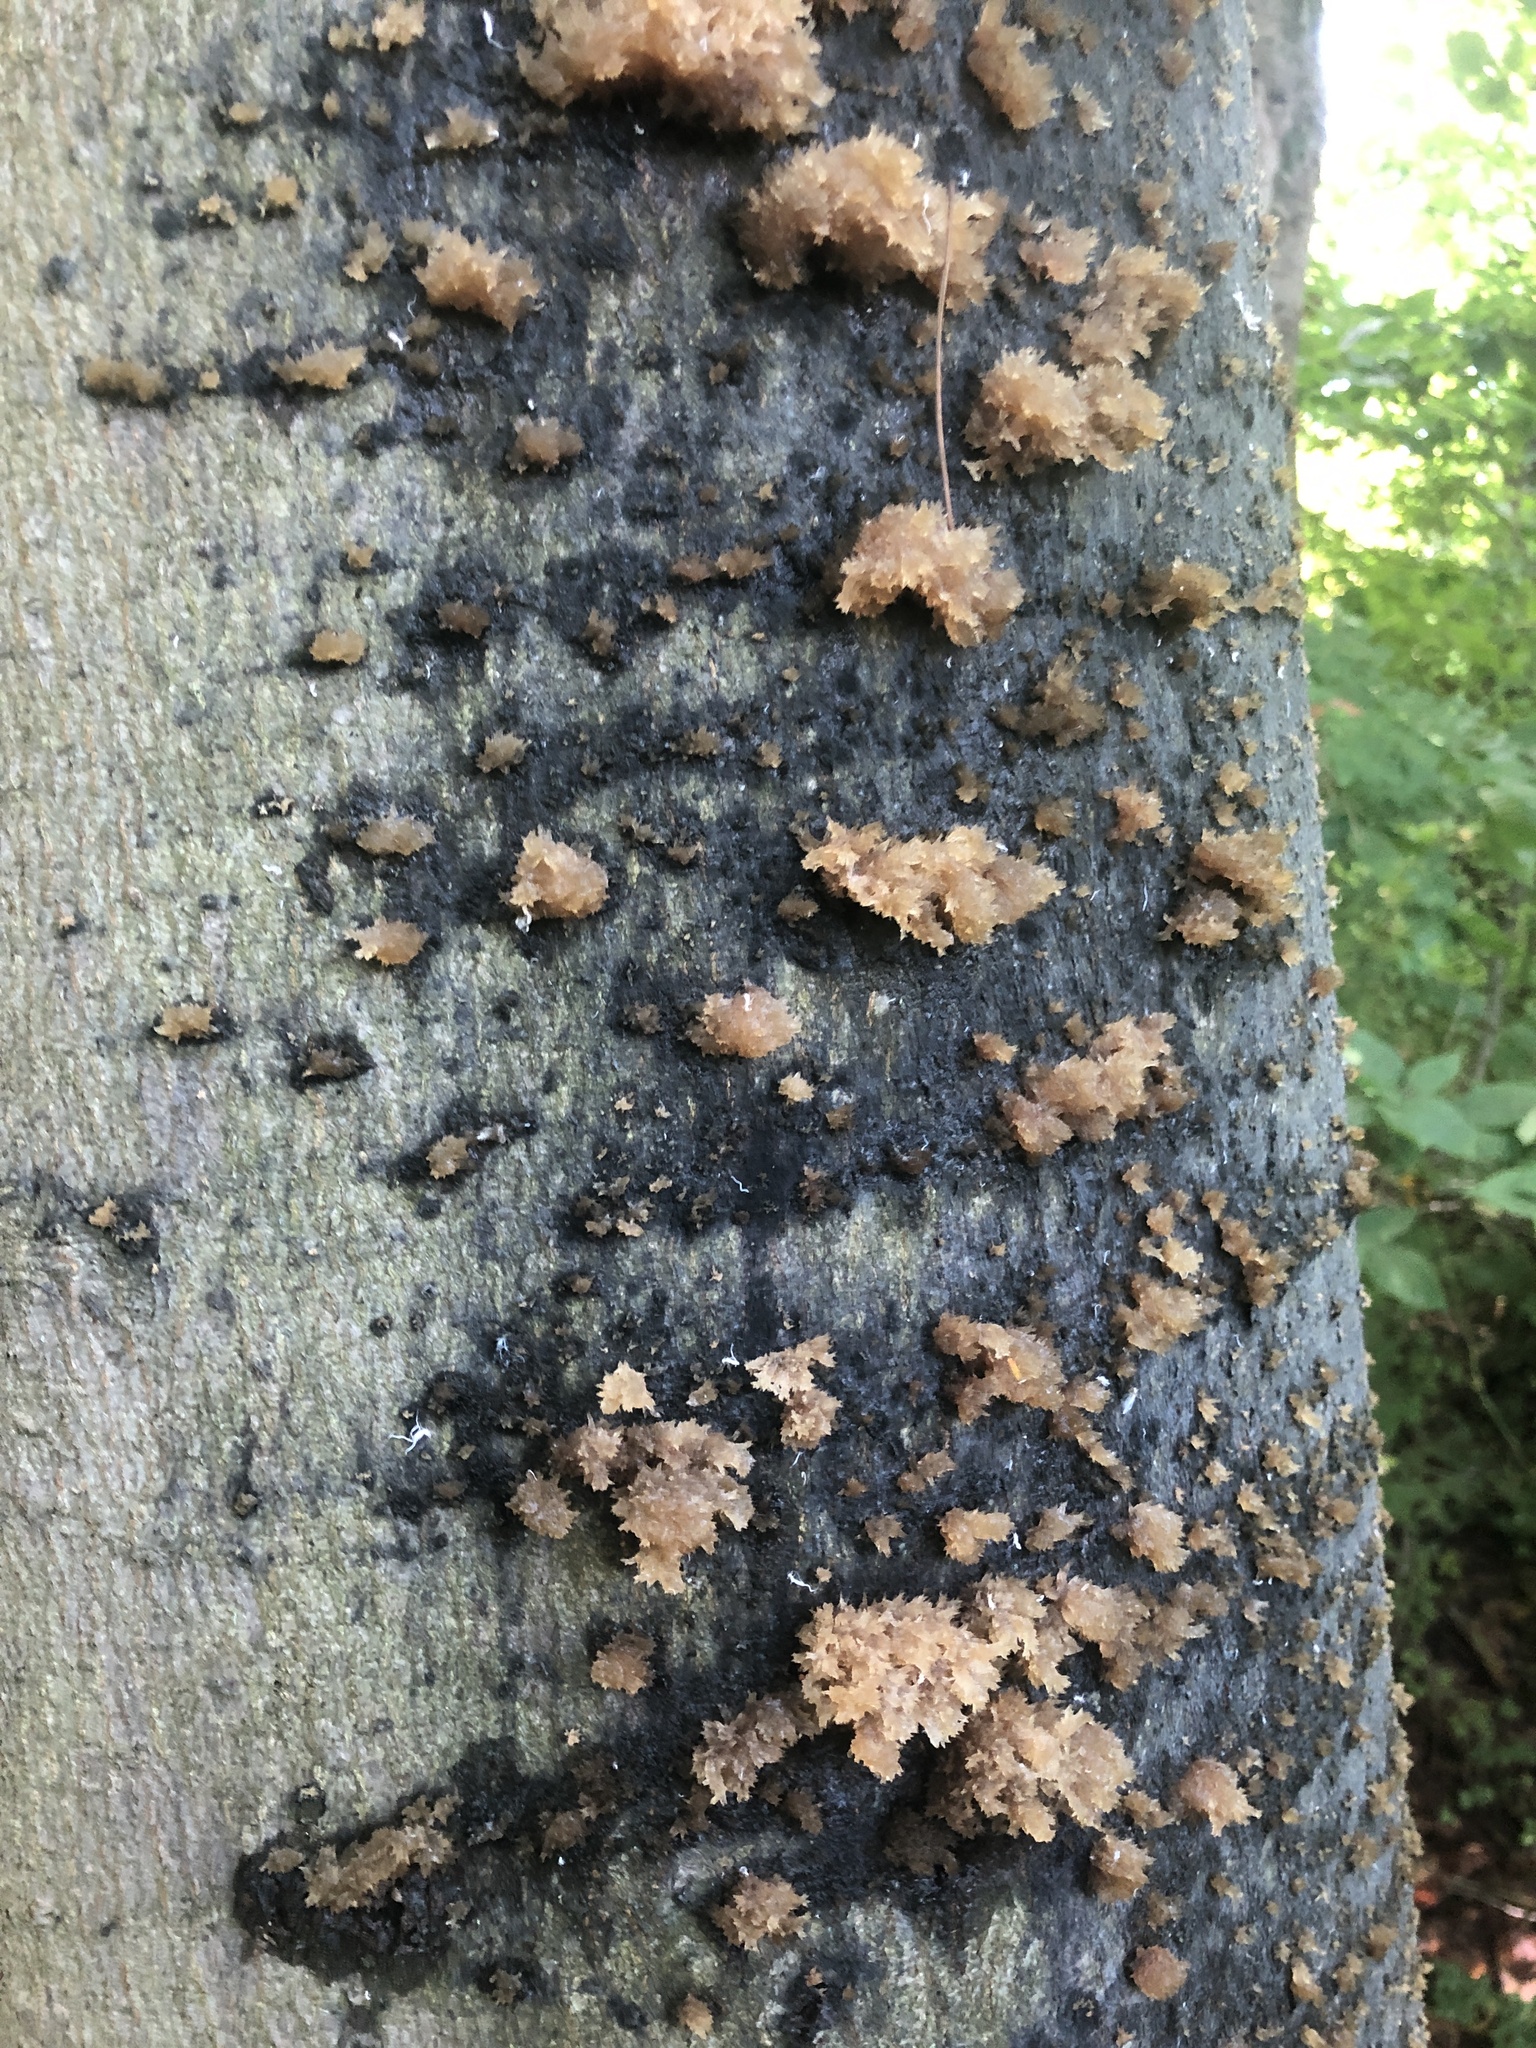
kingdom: Fungi
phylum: Ascomycota
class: Dothideomycetes
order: Capnodiales
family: Capnodiaceae
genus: Scorias
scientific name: Scorias spongiosa
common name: Black sooty mold
